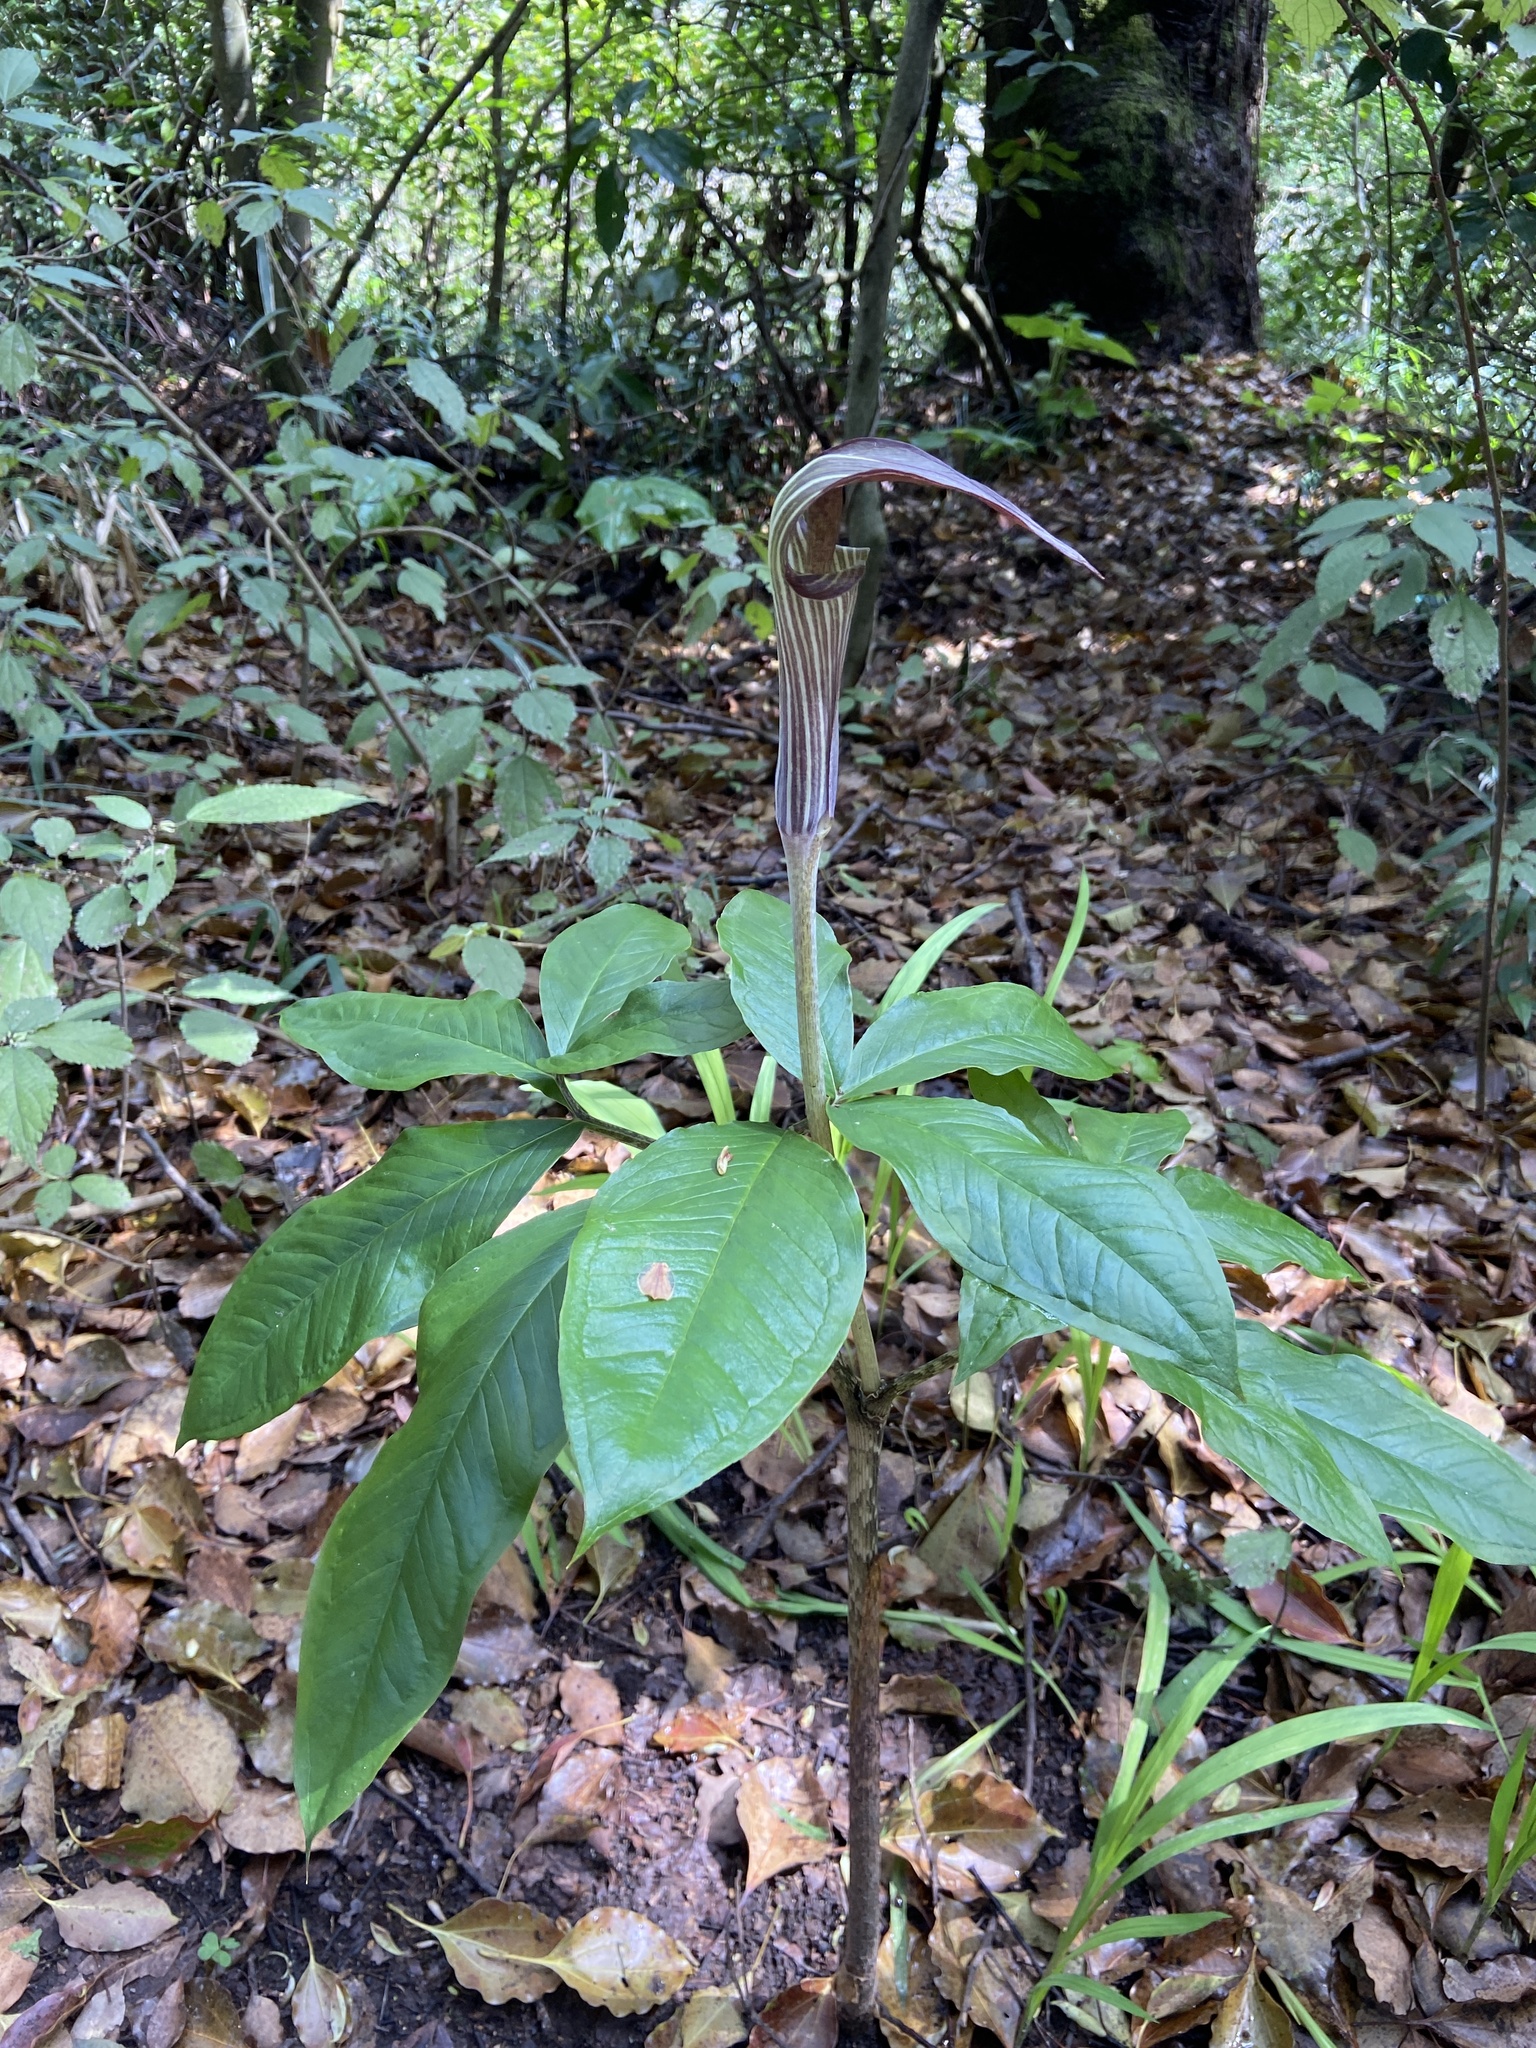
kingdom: Plantae
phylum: Tracheophyta
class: Liliopsida
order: Alismatales
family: Araceae
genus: Arisaema
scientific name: Arisaema japonicum
